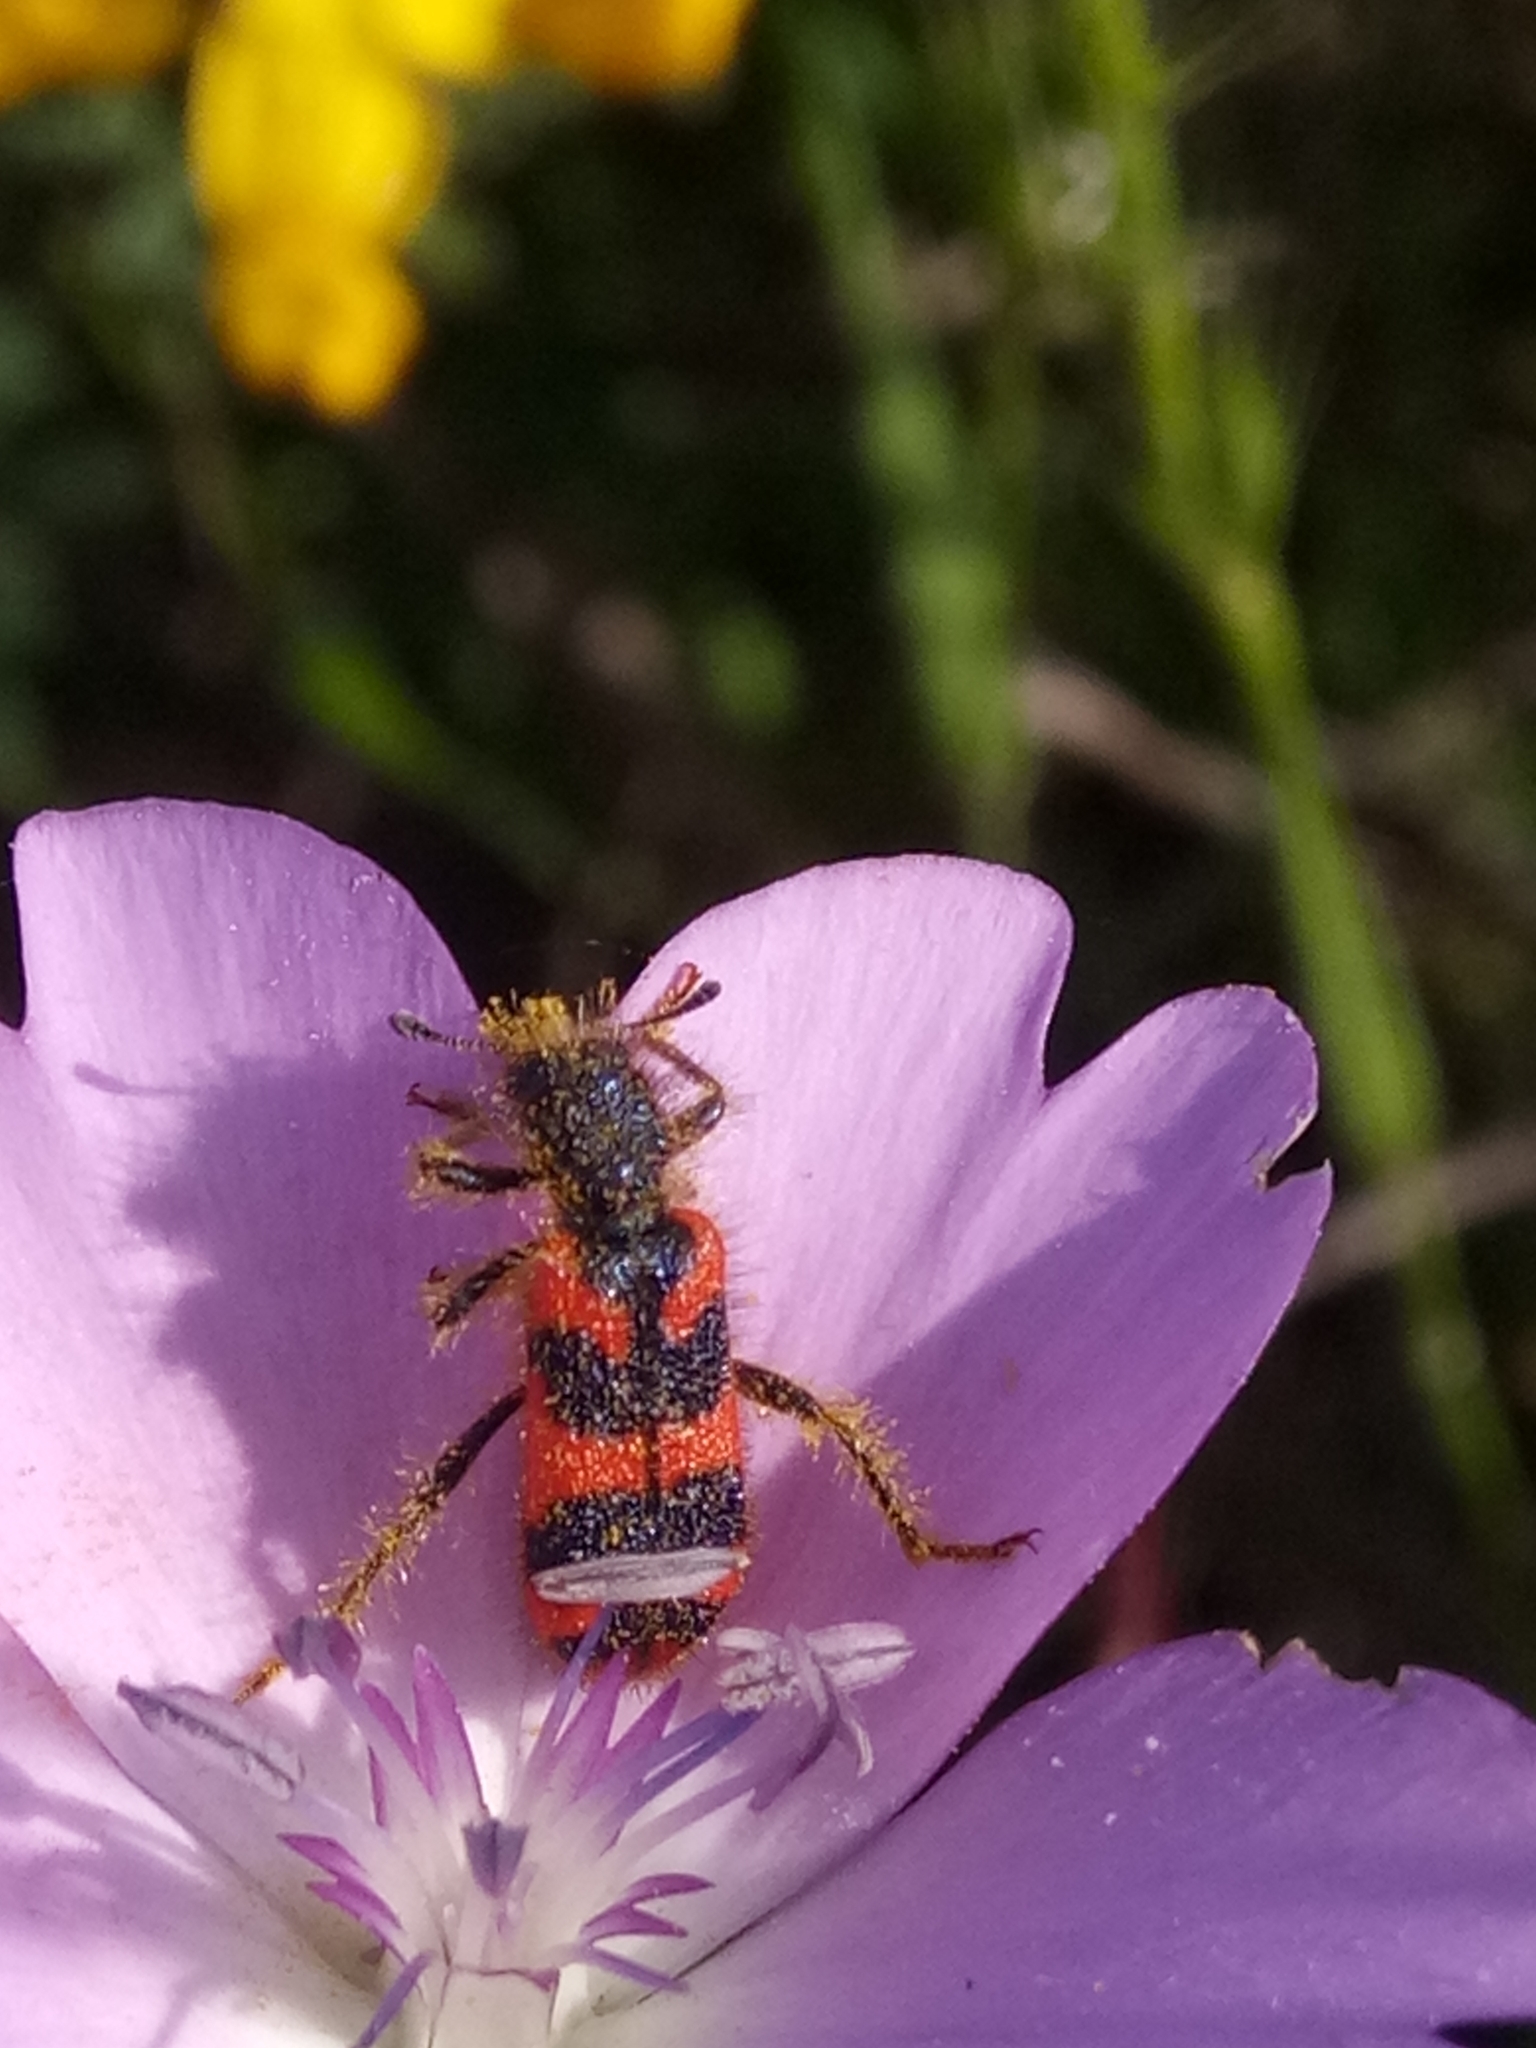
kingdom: Animalia
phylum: Arthropoda
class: Insecta
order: Coleoptera
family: Cleridae
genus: Trichodes
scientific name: Trichodes umbellatarum
